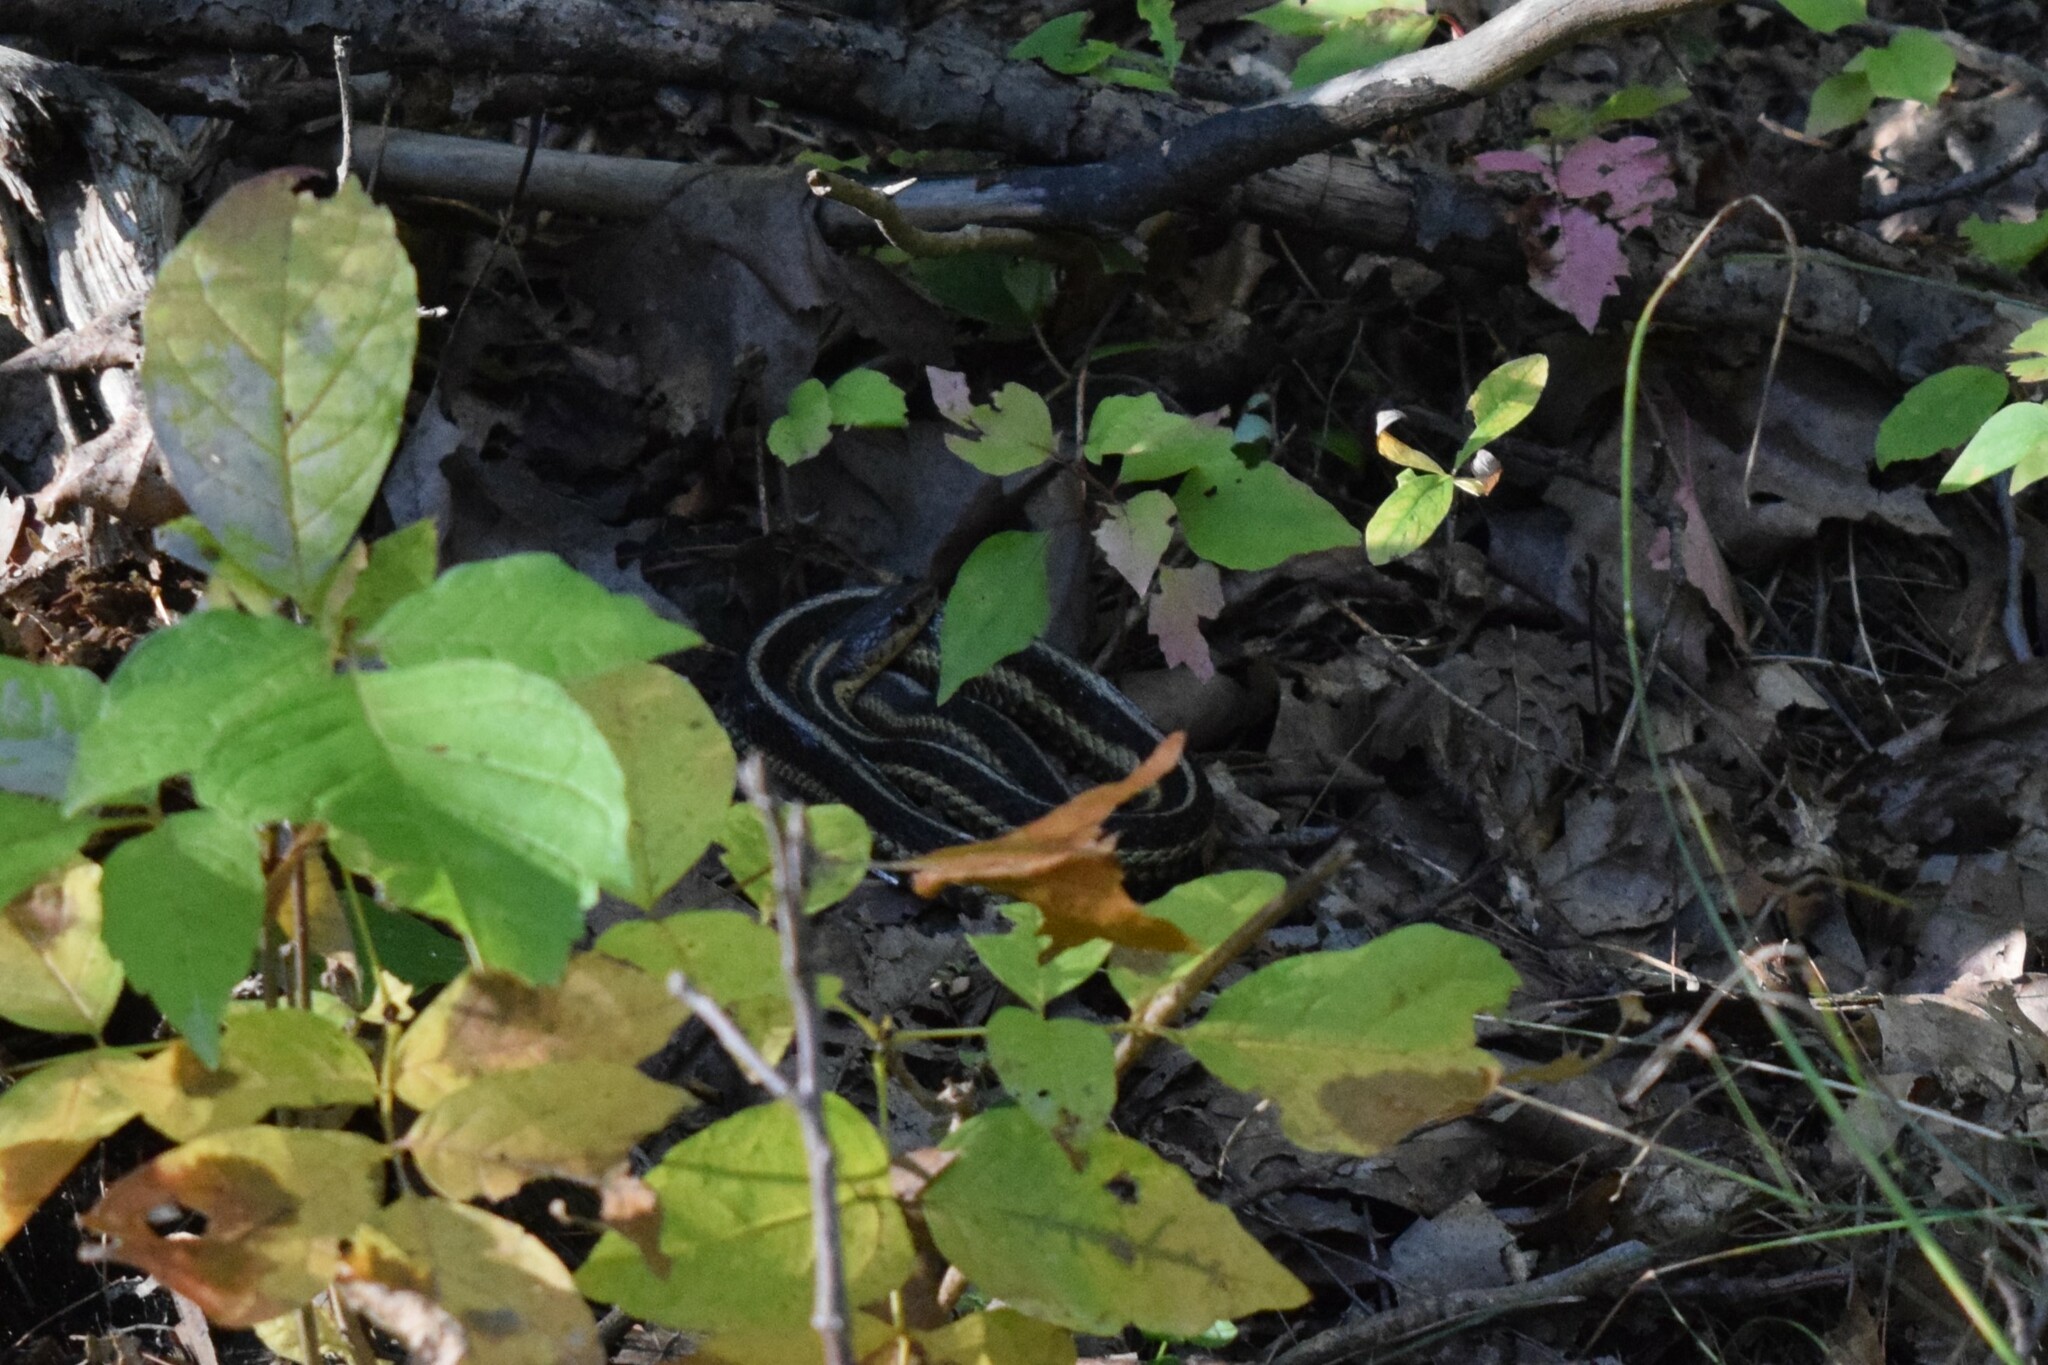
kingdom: Animalia
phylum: Chordata
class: Squamata
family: Colubridae
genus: Thamnophis
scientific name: Thamnophis sirtalis
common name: Common garter snake
